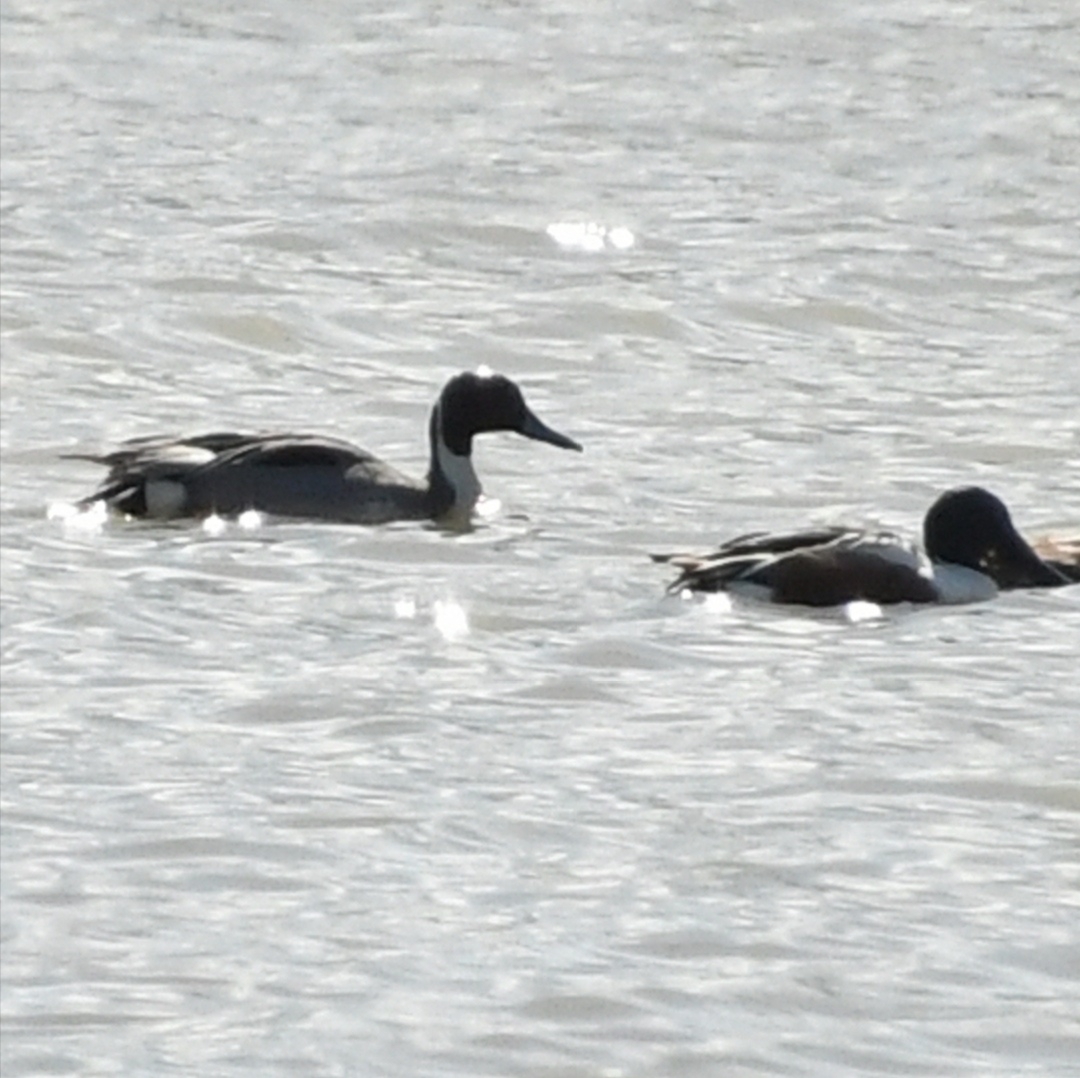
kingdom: Animalia
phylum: Chordata
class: Aves
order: Anseriformes
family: Anatidae
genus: Anas
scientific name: Anas acuta
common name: Northern pintail
